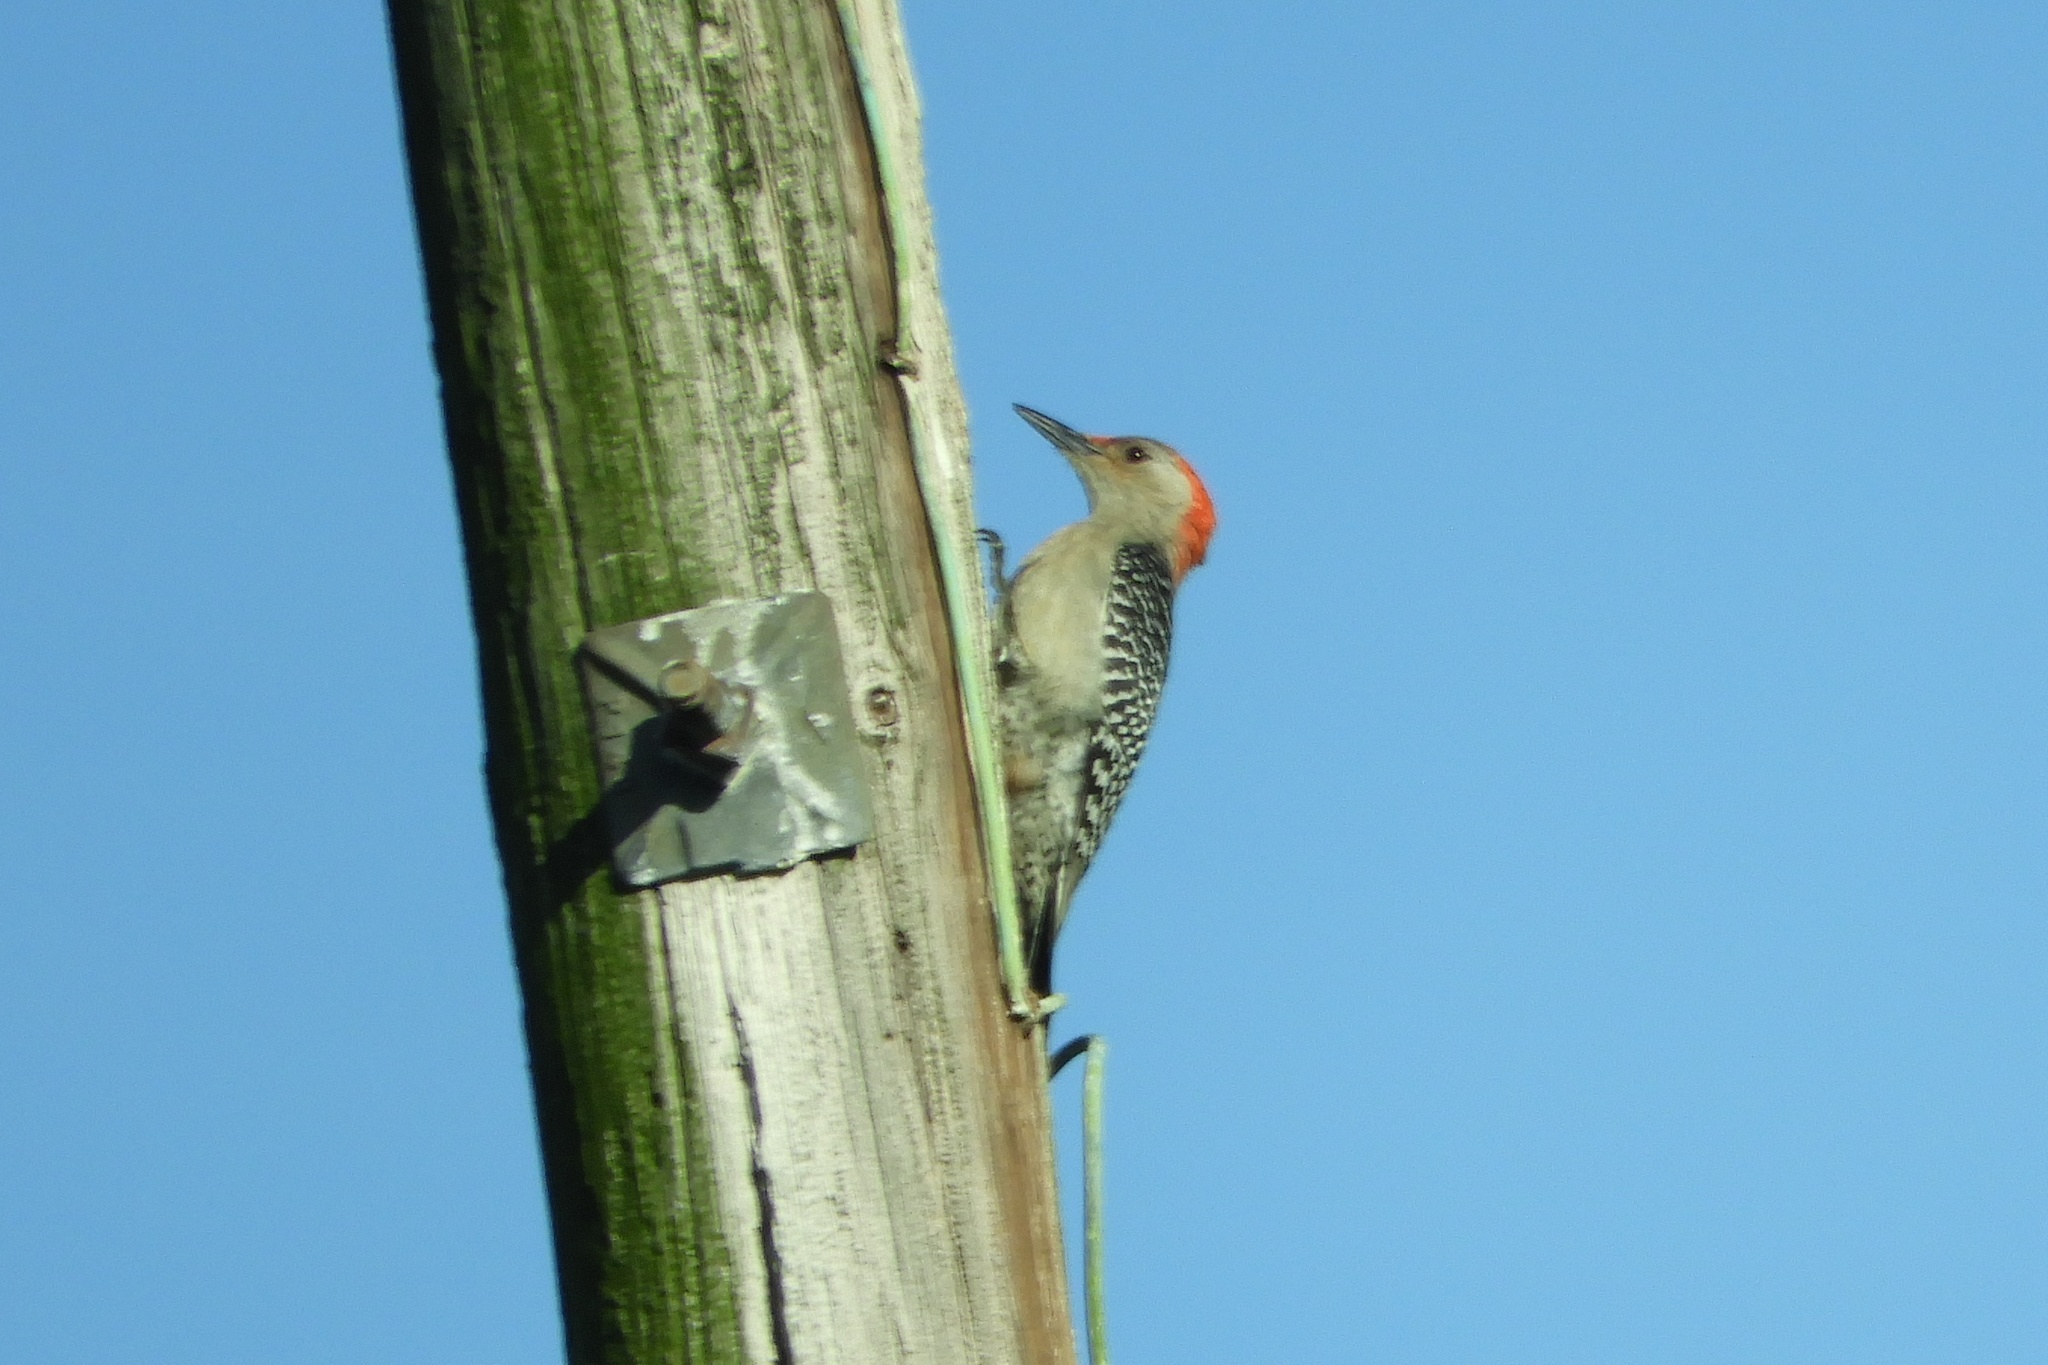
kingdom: Animalia
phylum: Chordata
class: Aves
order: Piciformes
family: Picidae
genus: Melanerpes
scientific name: Melanerpes carolinus
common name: Red-bellied woodpecker
